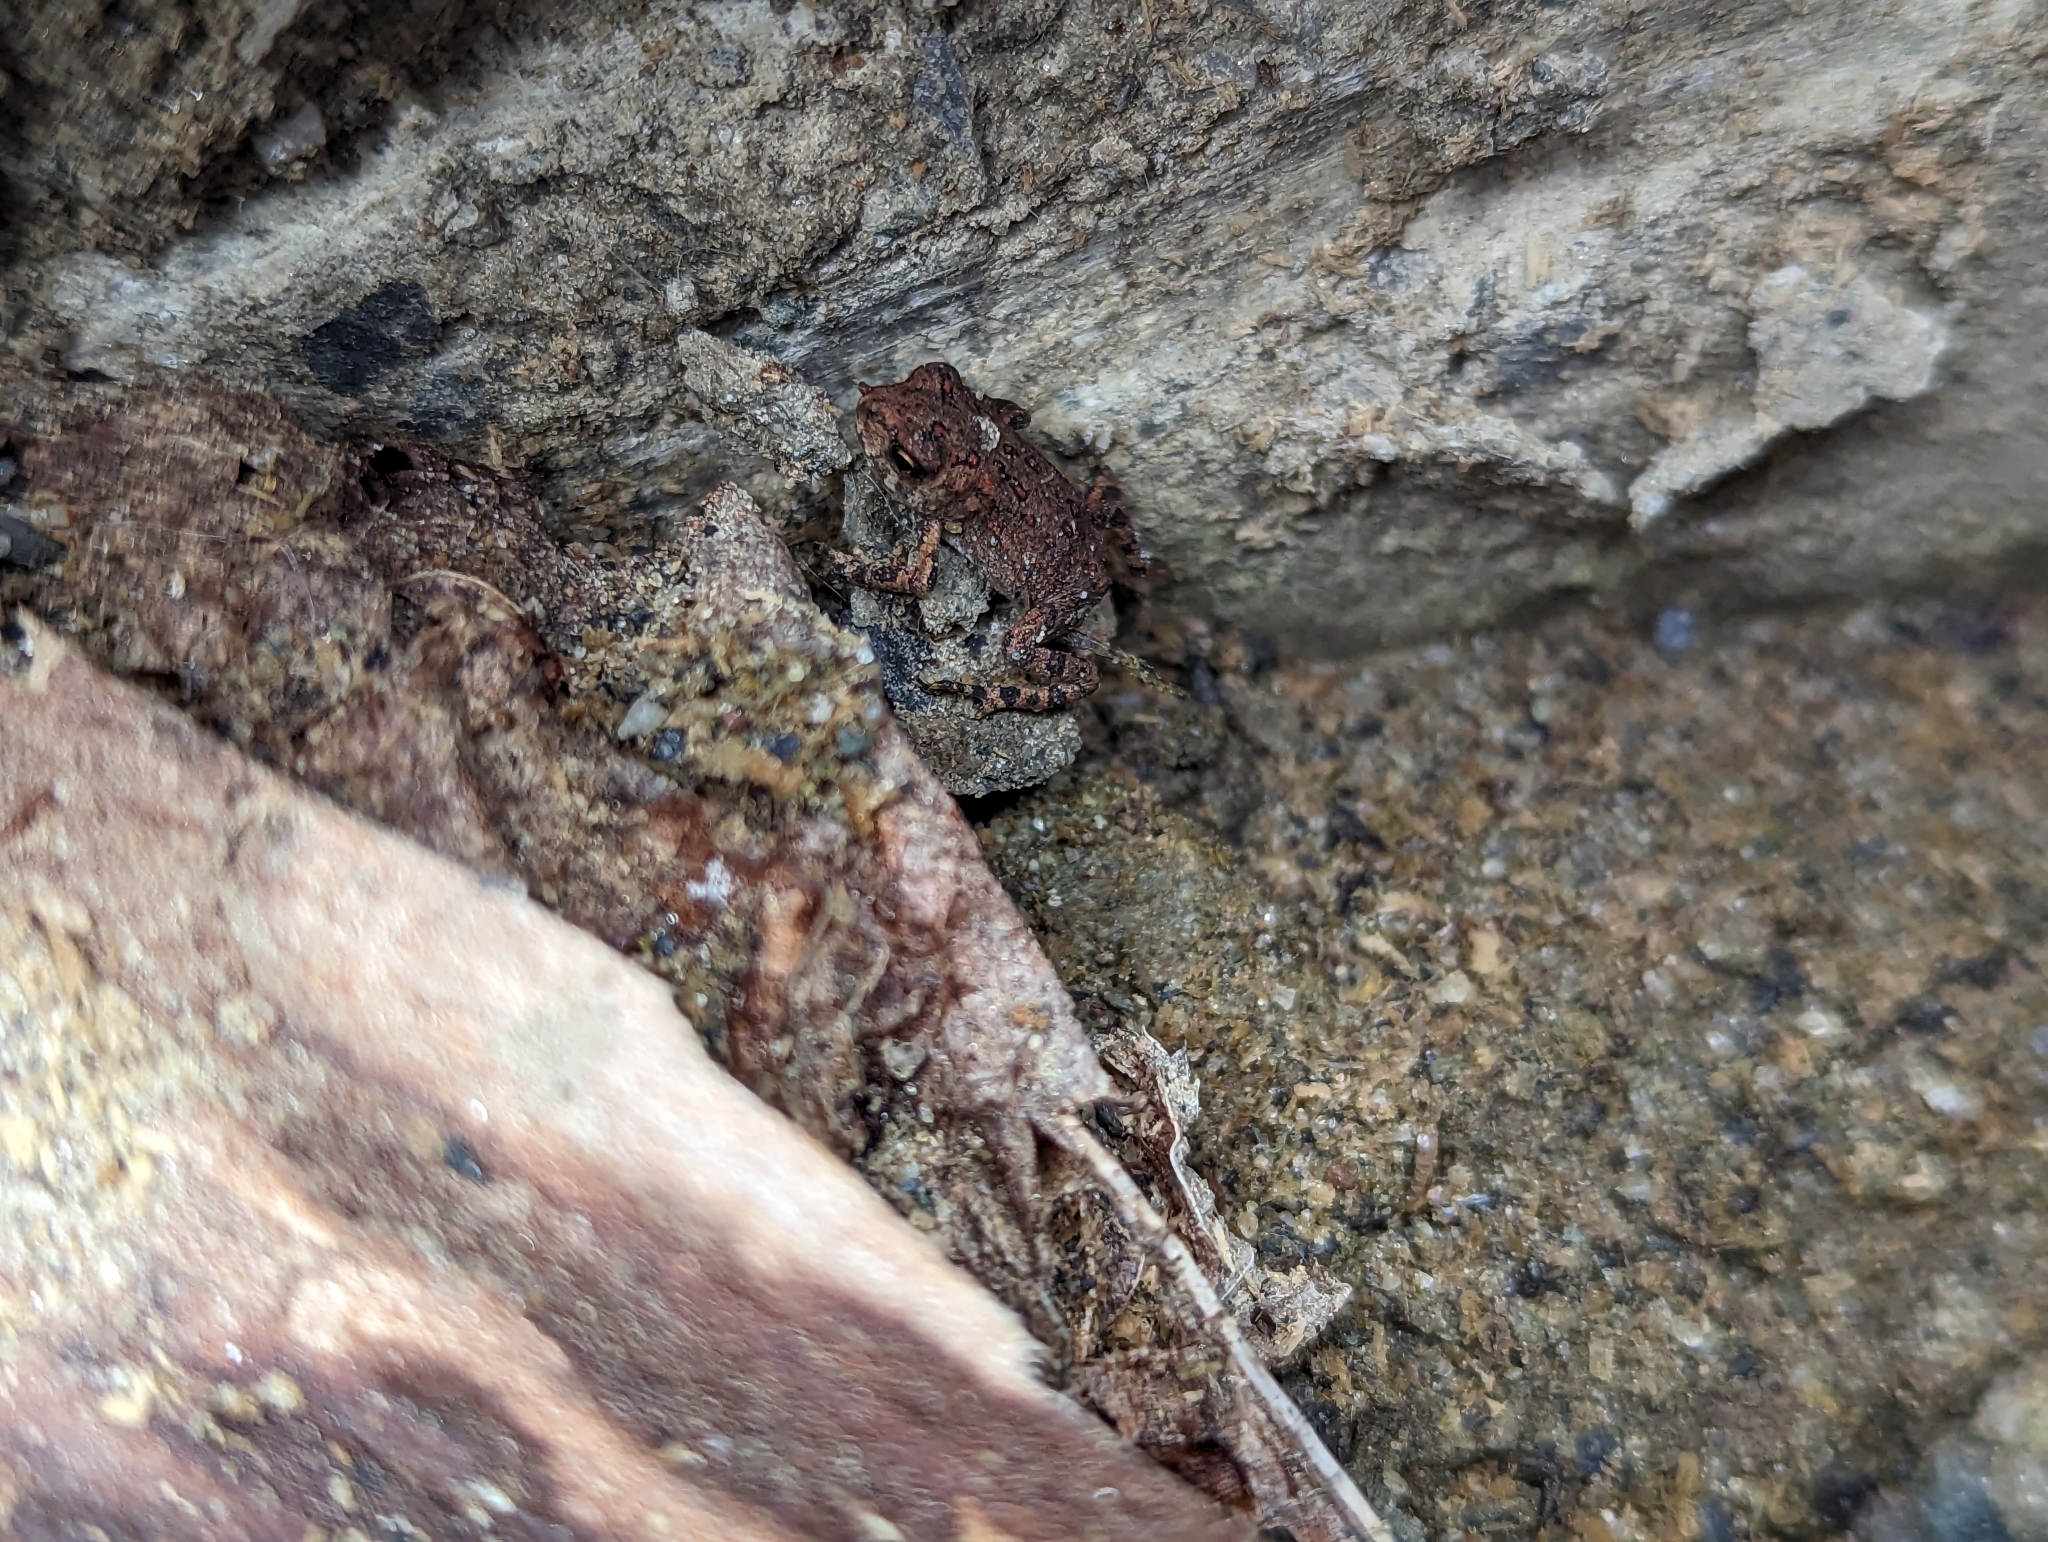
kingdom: Animalia
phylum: Chordata
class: Amphibia
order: Anura
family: Bufonidae
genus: Anaxyrus
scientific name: Anaxyrus americanus
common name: American toad
